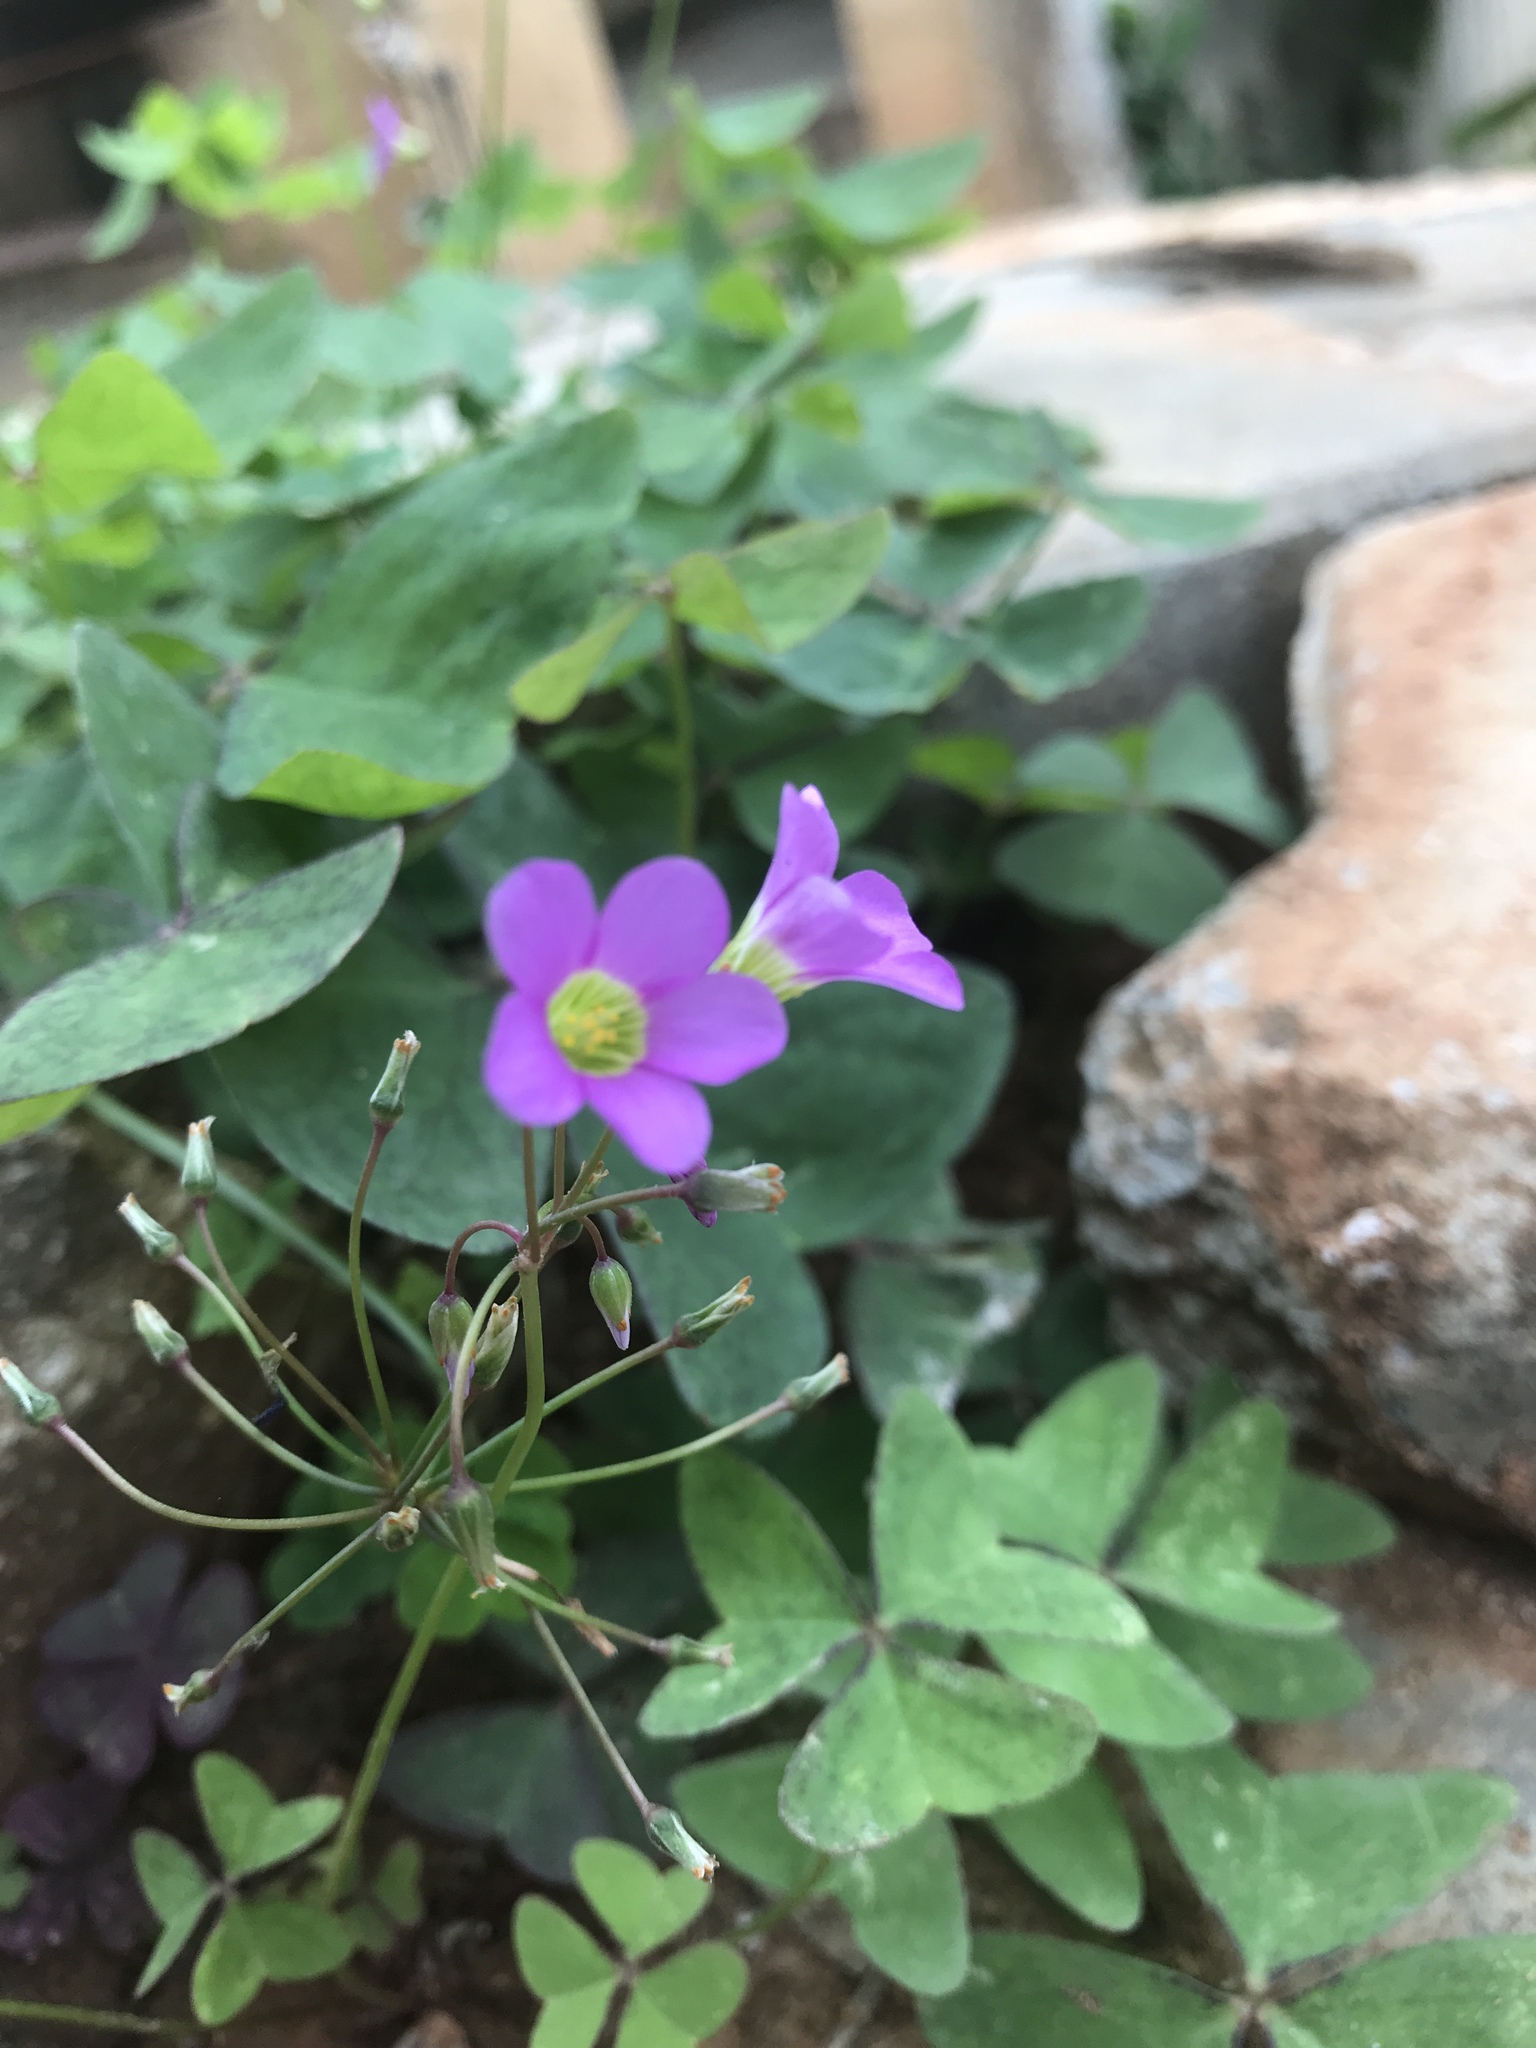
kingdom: Plantae
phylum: Tracheophyta
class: Magnoliopsida
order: Oxalidales
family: Oxalidaceae
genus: Oxalis
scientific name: Oxalis latifolia
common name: Garden pink-sorrel
